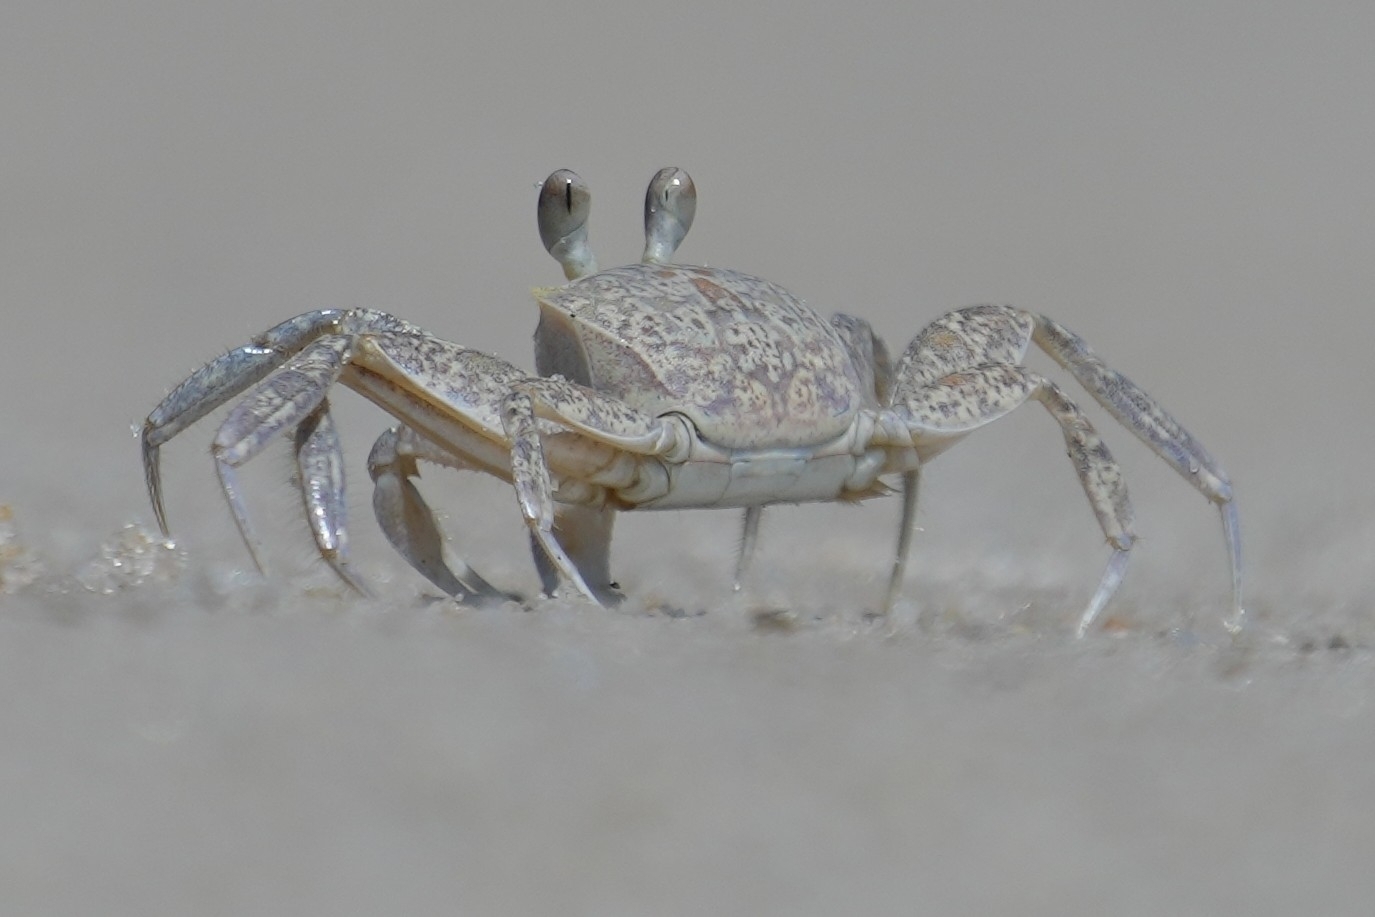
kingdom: Animalia
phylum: Arthropoda
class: Malacostraca
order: Decapoda
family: Ocypodidae
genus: Ocypode
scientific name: Ocypode quadrata
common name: Ghost crab
